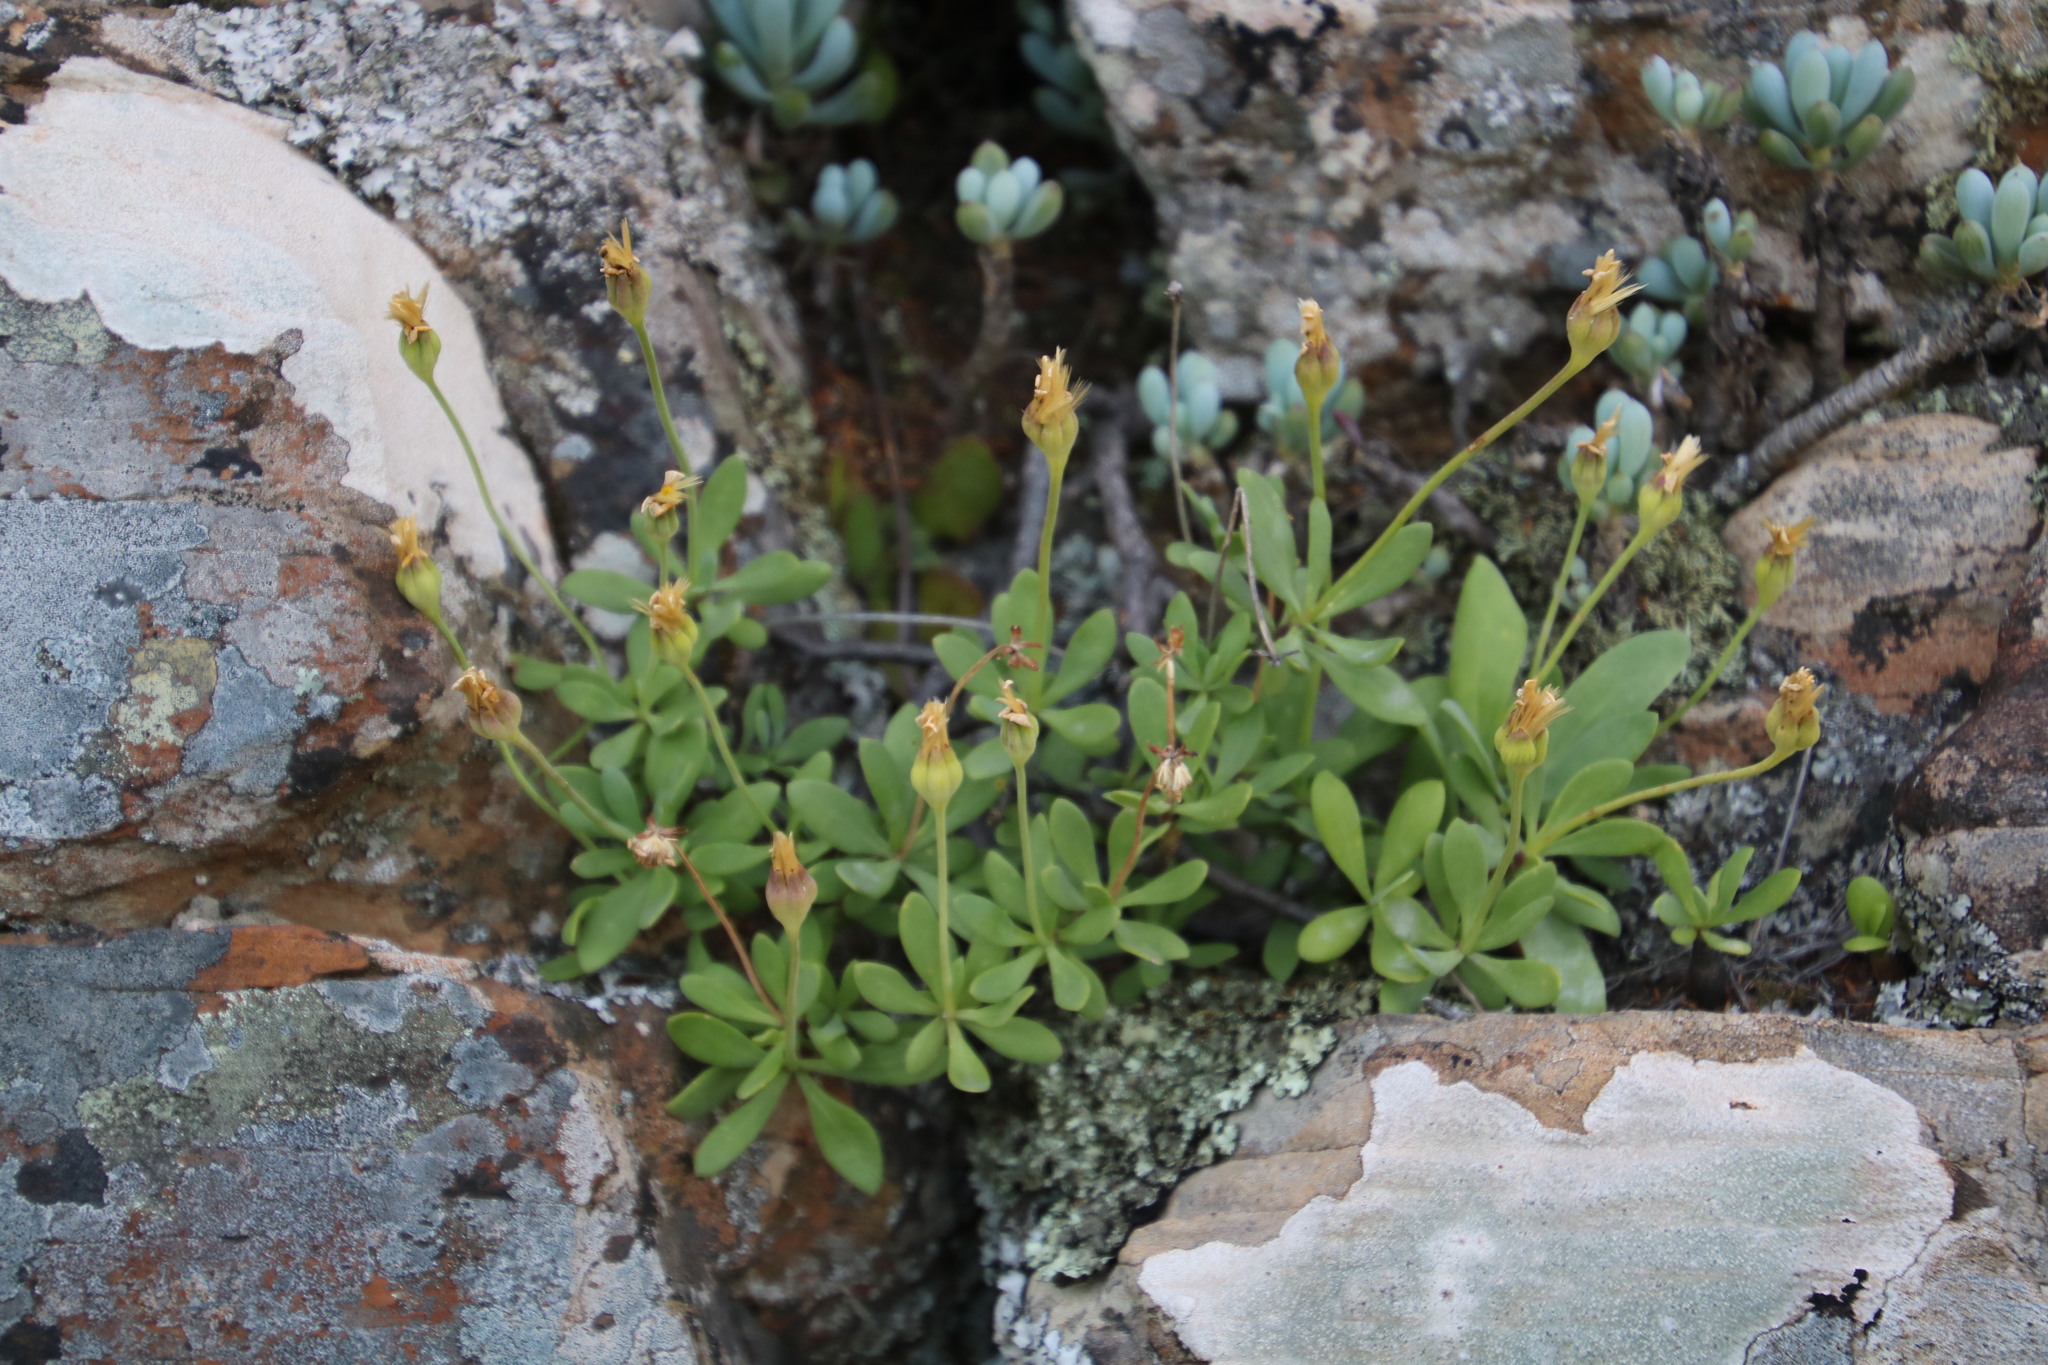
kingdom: Plantae
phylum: Tracheophyta
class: Magnoliopsida
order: Asterales
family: Asteraceae
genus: Othonna
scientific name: Othonna coronopifolia
